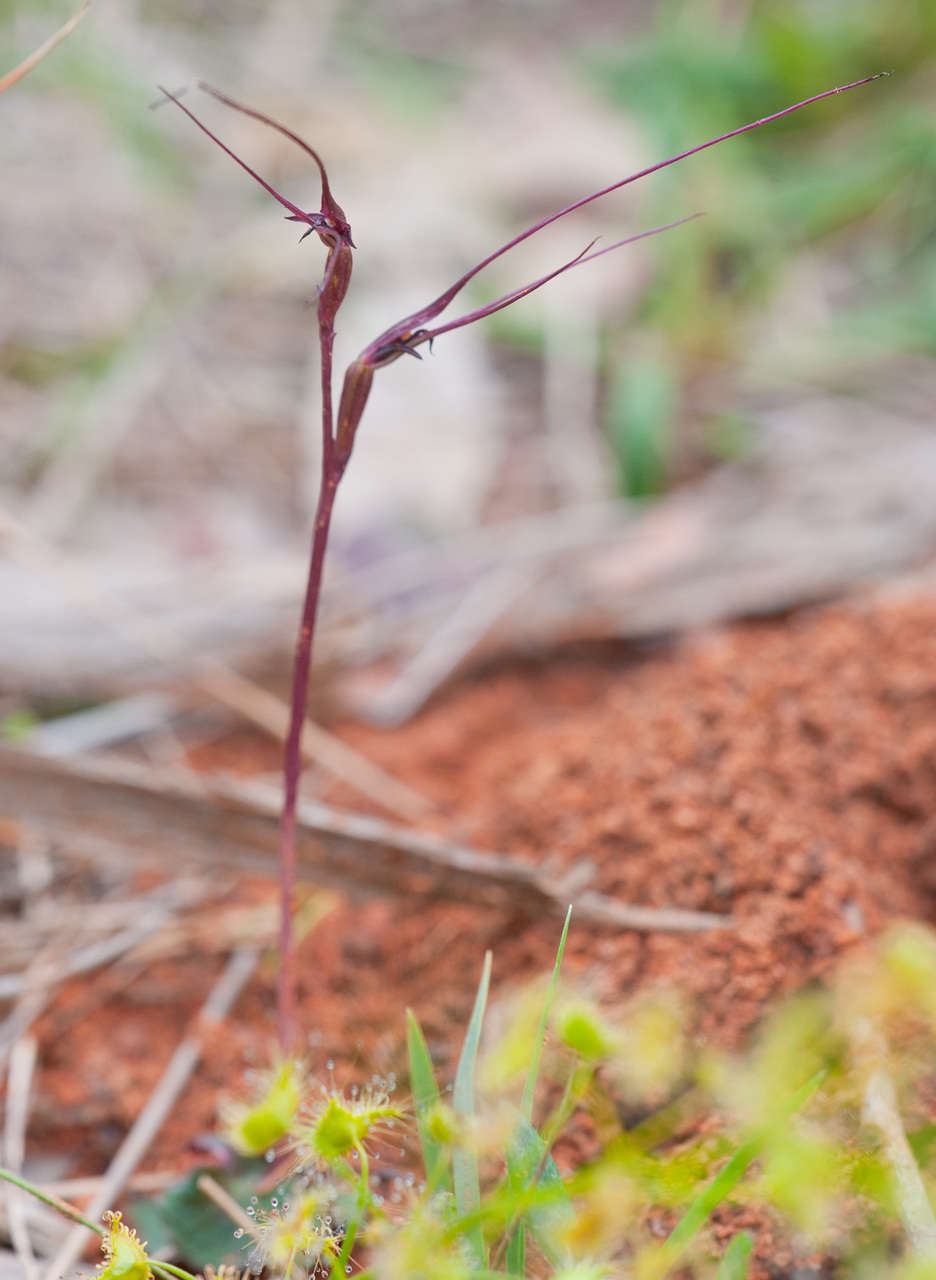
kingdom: Plantae
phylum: Tracheophyta
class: Liliopsida
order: Asparagales
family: Orchidaceae
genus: Acianthus
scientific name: Acianthus caudatus
